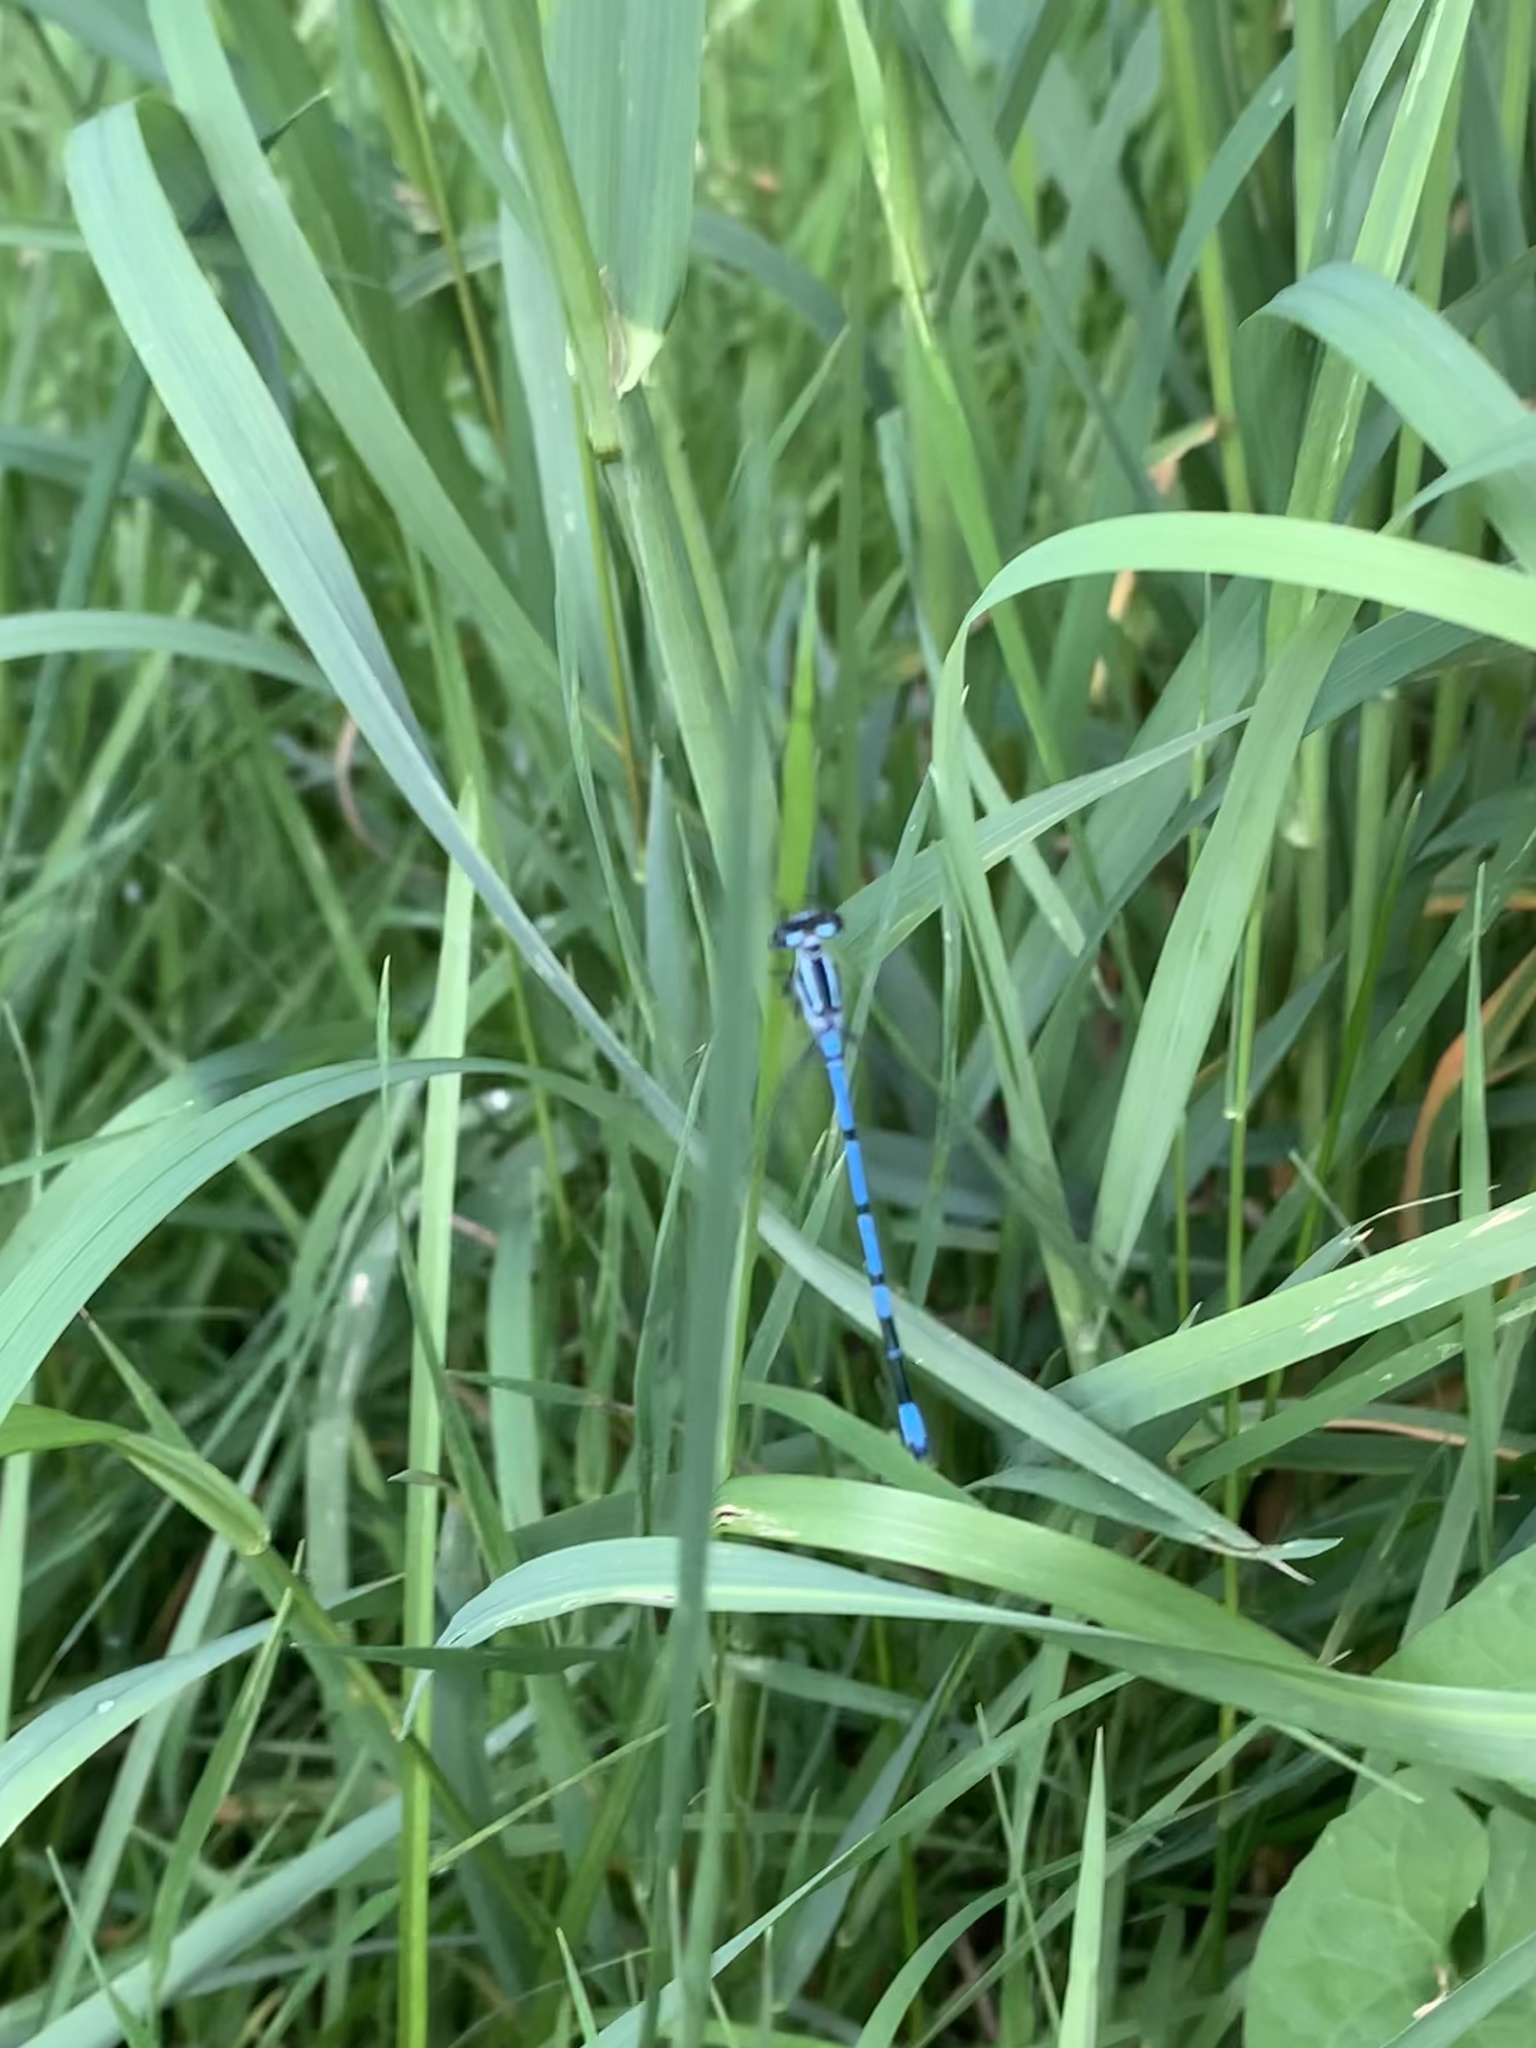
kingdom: Animalia
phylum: Arthropoda
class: Insecta
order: Odonata
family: Coenagrionidae
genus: Coenagrion
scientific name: Coenagrion puella
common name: Azure damselfly
